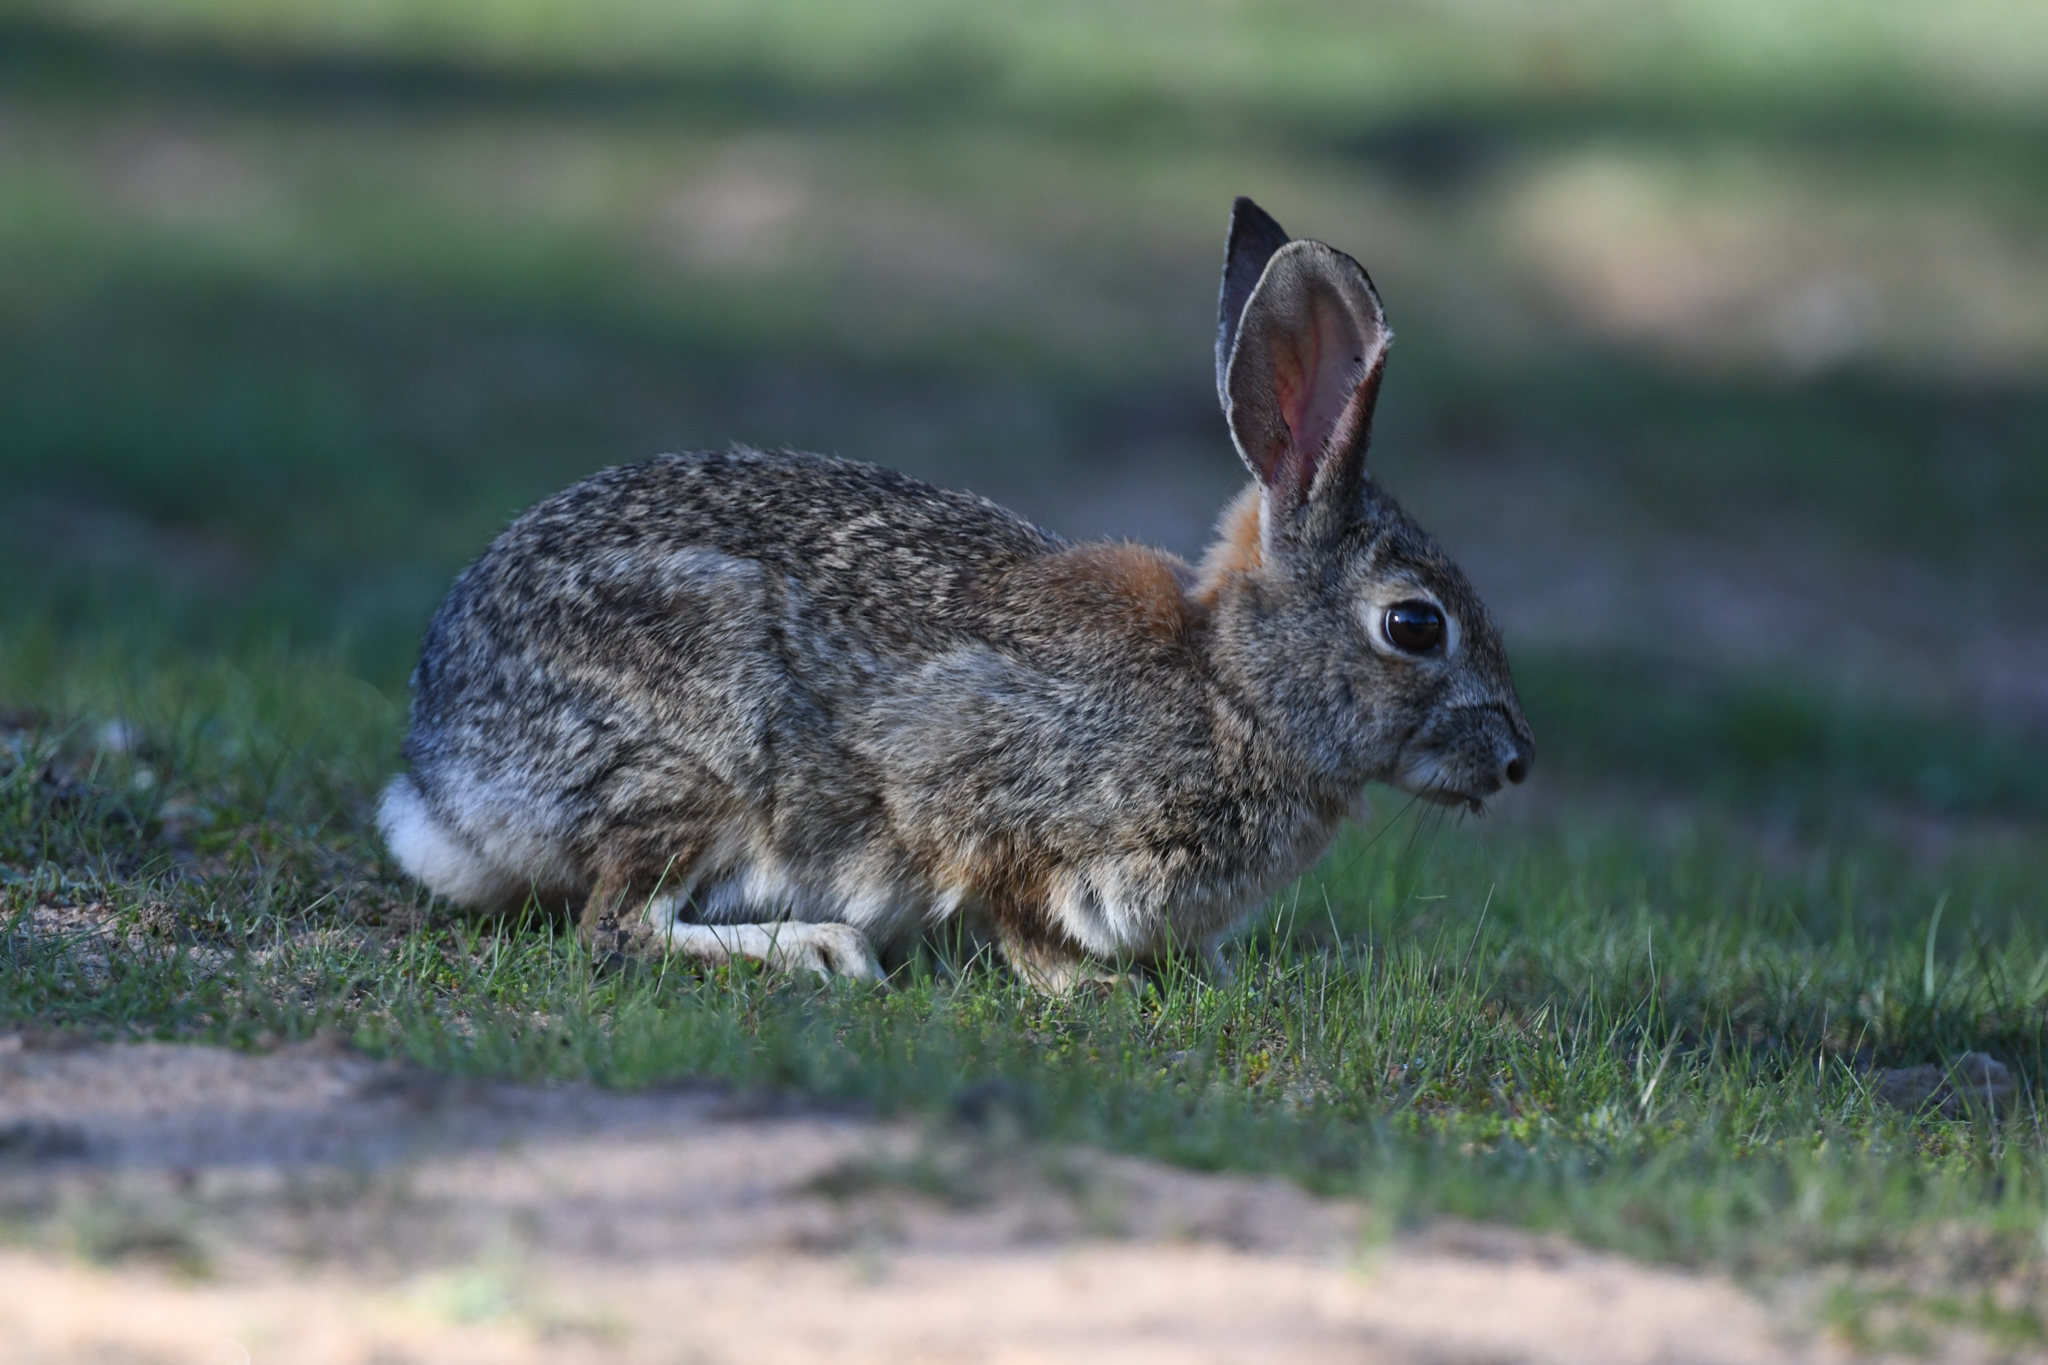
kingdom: Animalia
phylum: Chordata
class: Mammalia
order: Lagomorpha
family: Leporidae
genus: Sylvilagus
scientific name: Sylvilagus audubonii
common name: Desert cottontail
